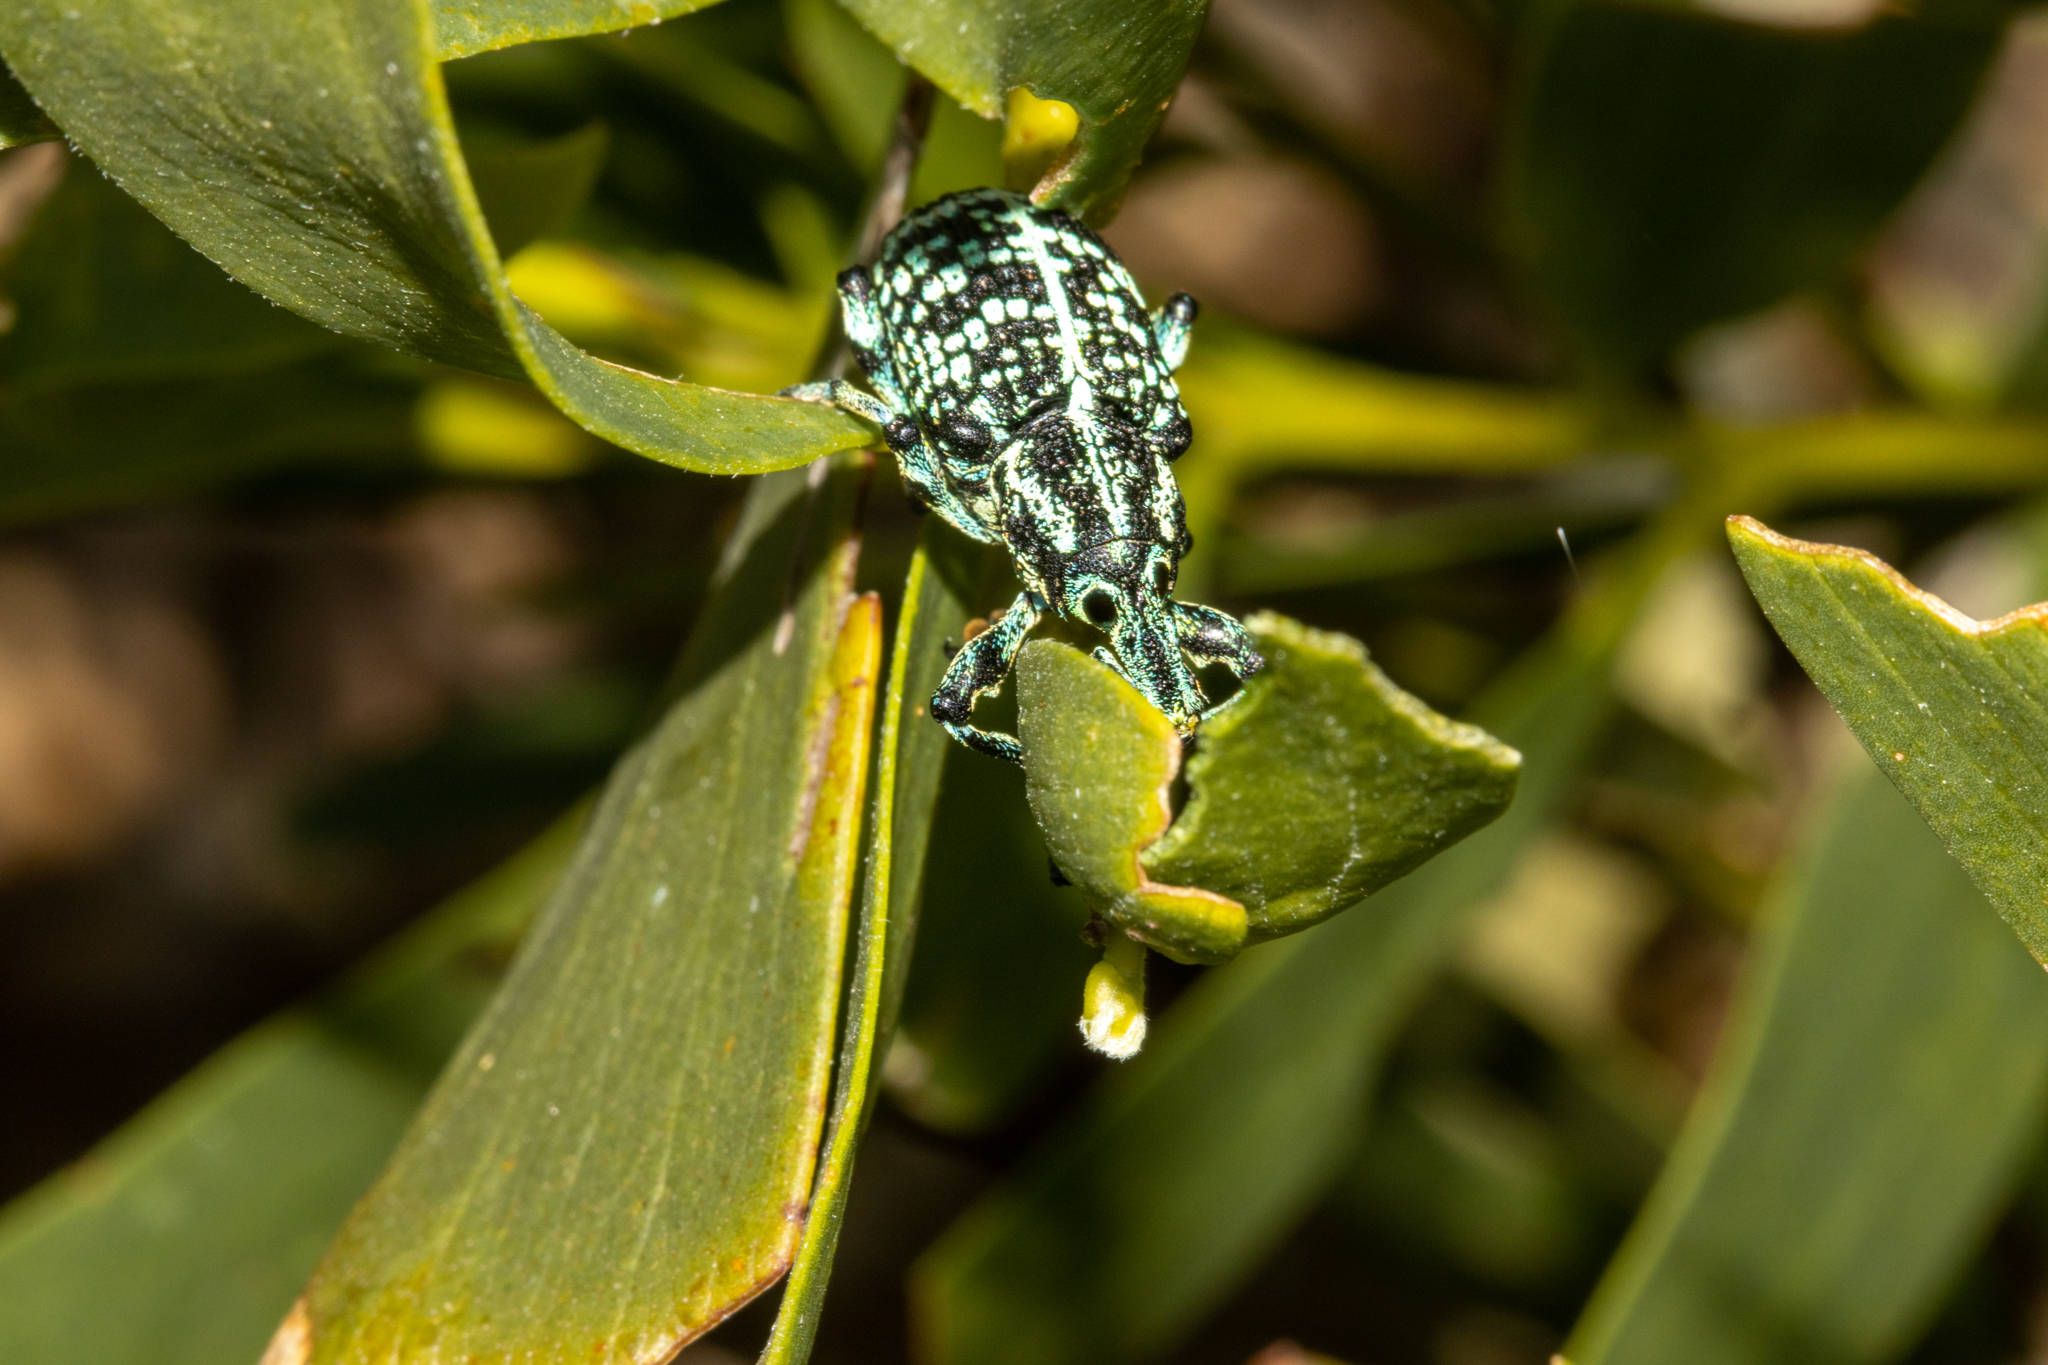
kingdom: Animalia
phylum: Arthropoda
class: Insecta
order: Coleoptera
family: Curculionidae
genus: Chrysolopus
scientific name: Chrysolopus spectabilis
